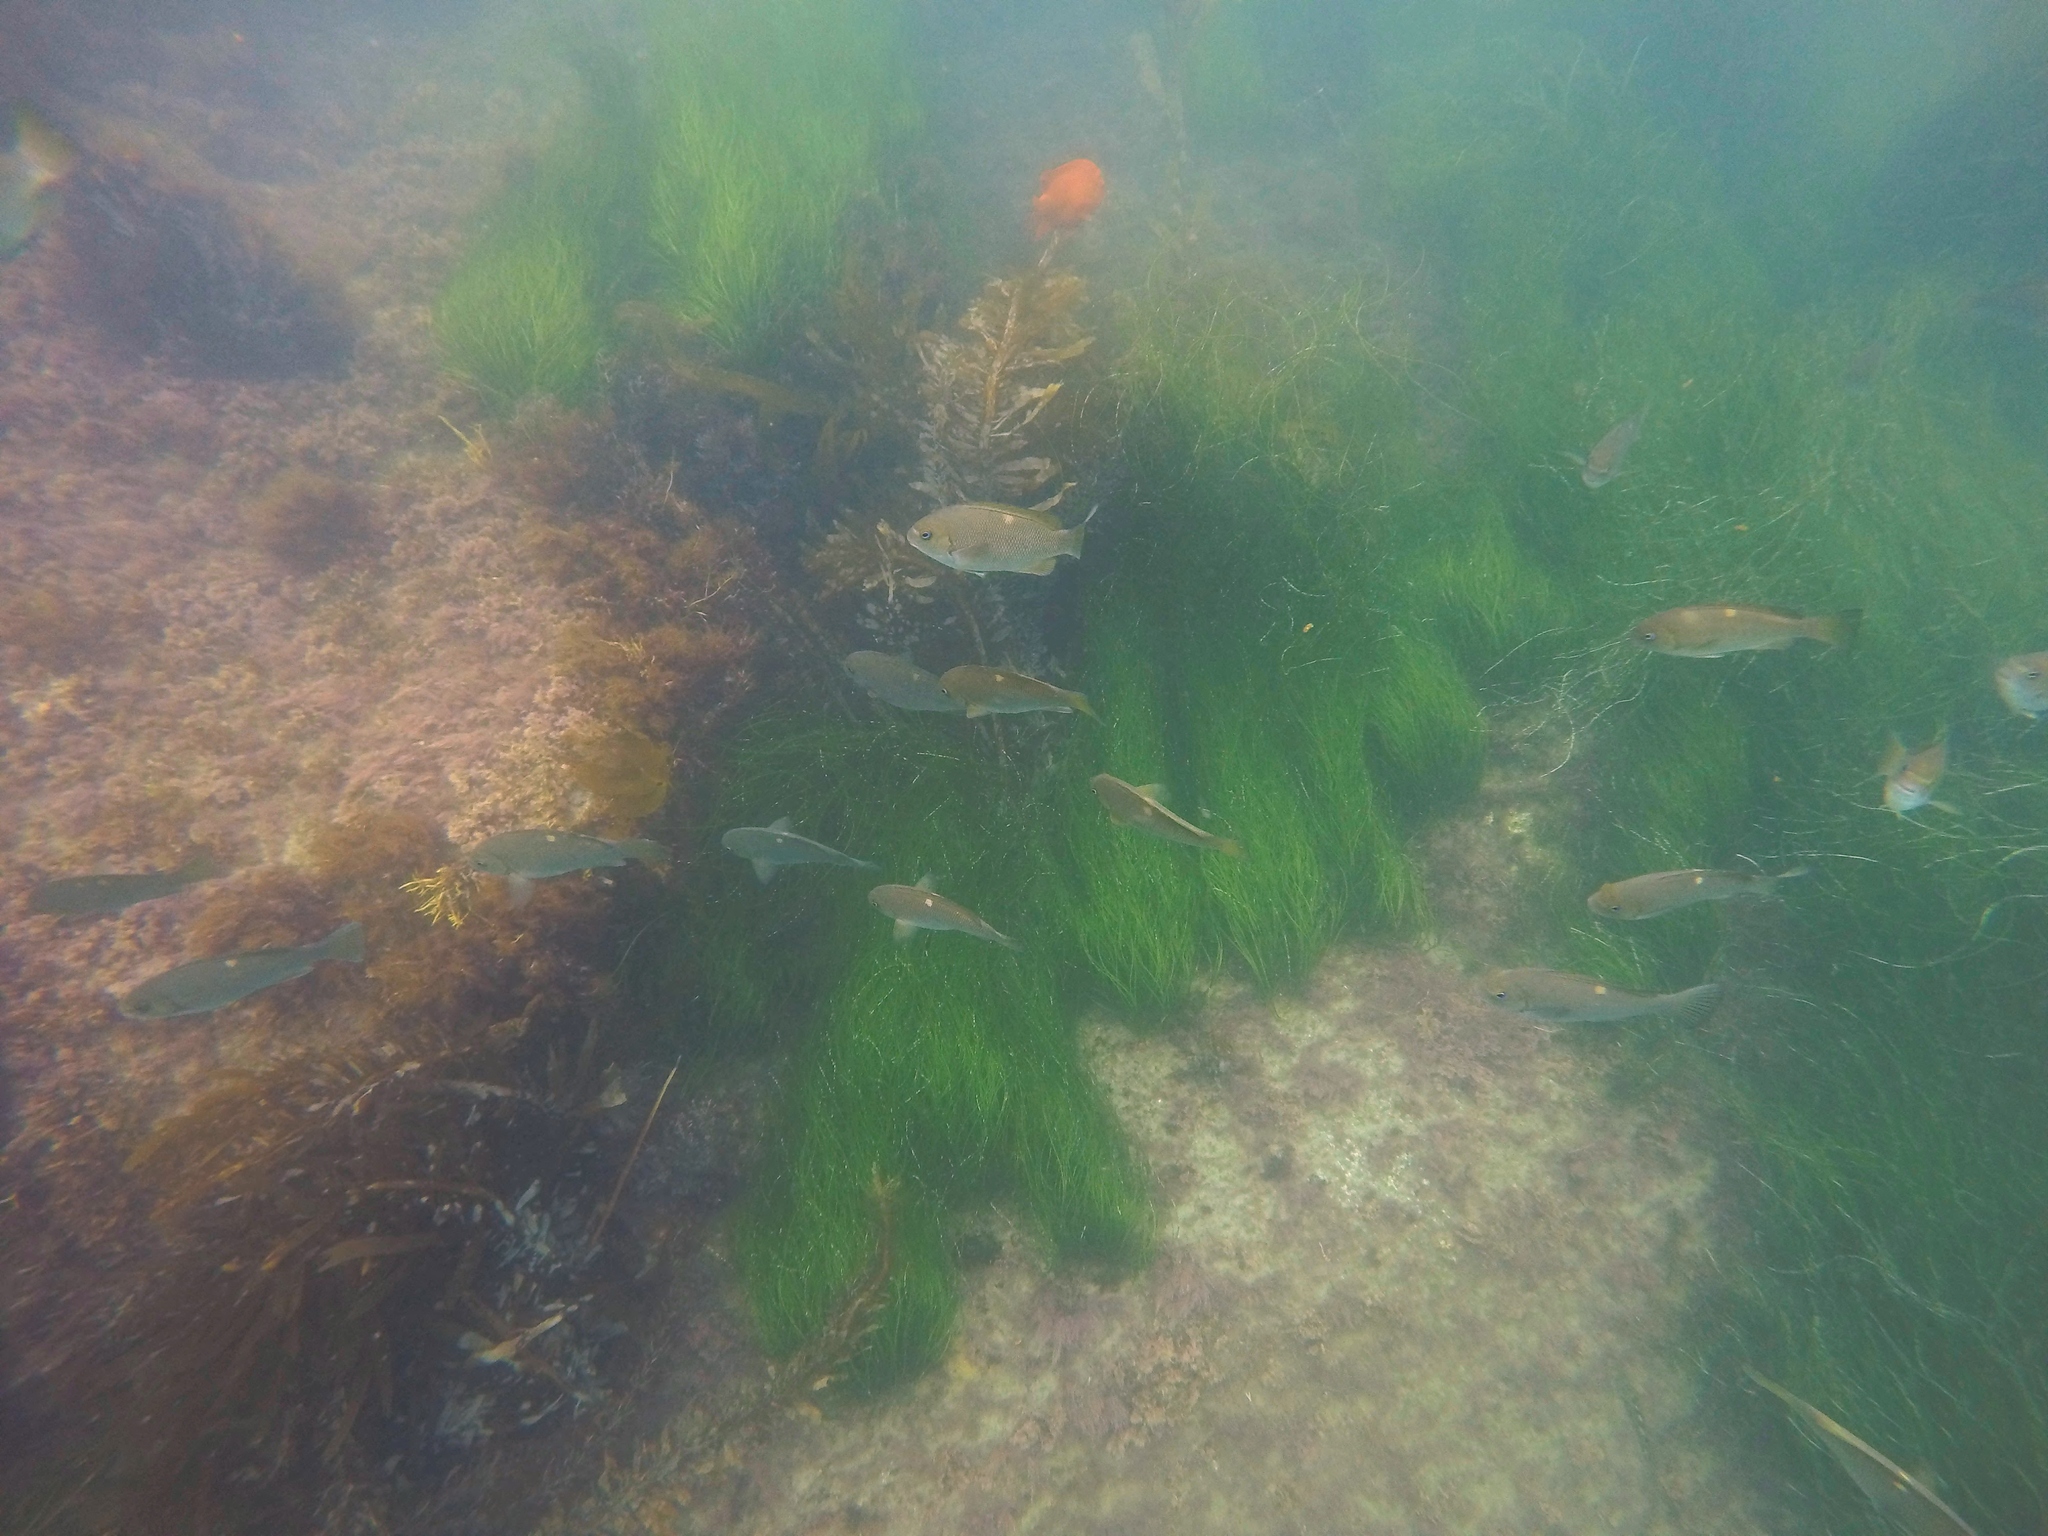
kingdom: Animalia
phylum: Chordata
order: Perciformes
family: Kyphosidae
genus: Girella
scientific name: Girella nigricans
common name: Opaleye
